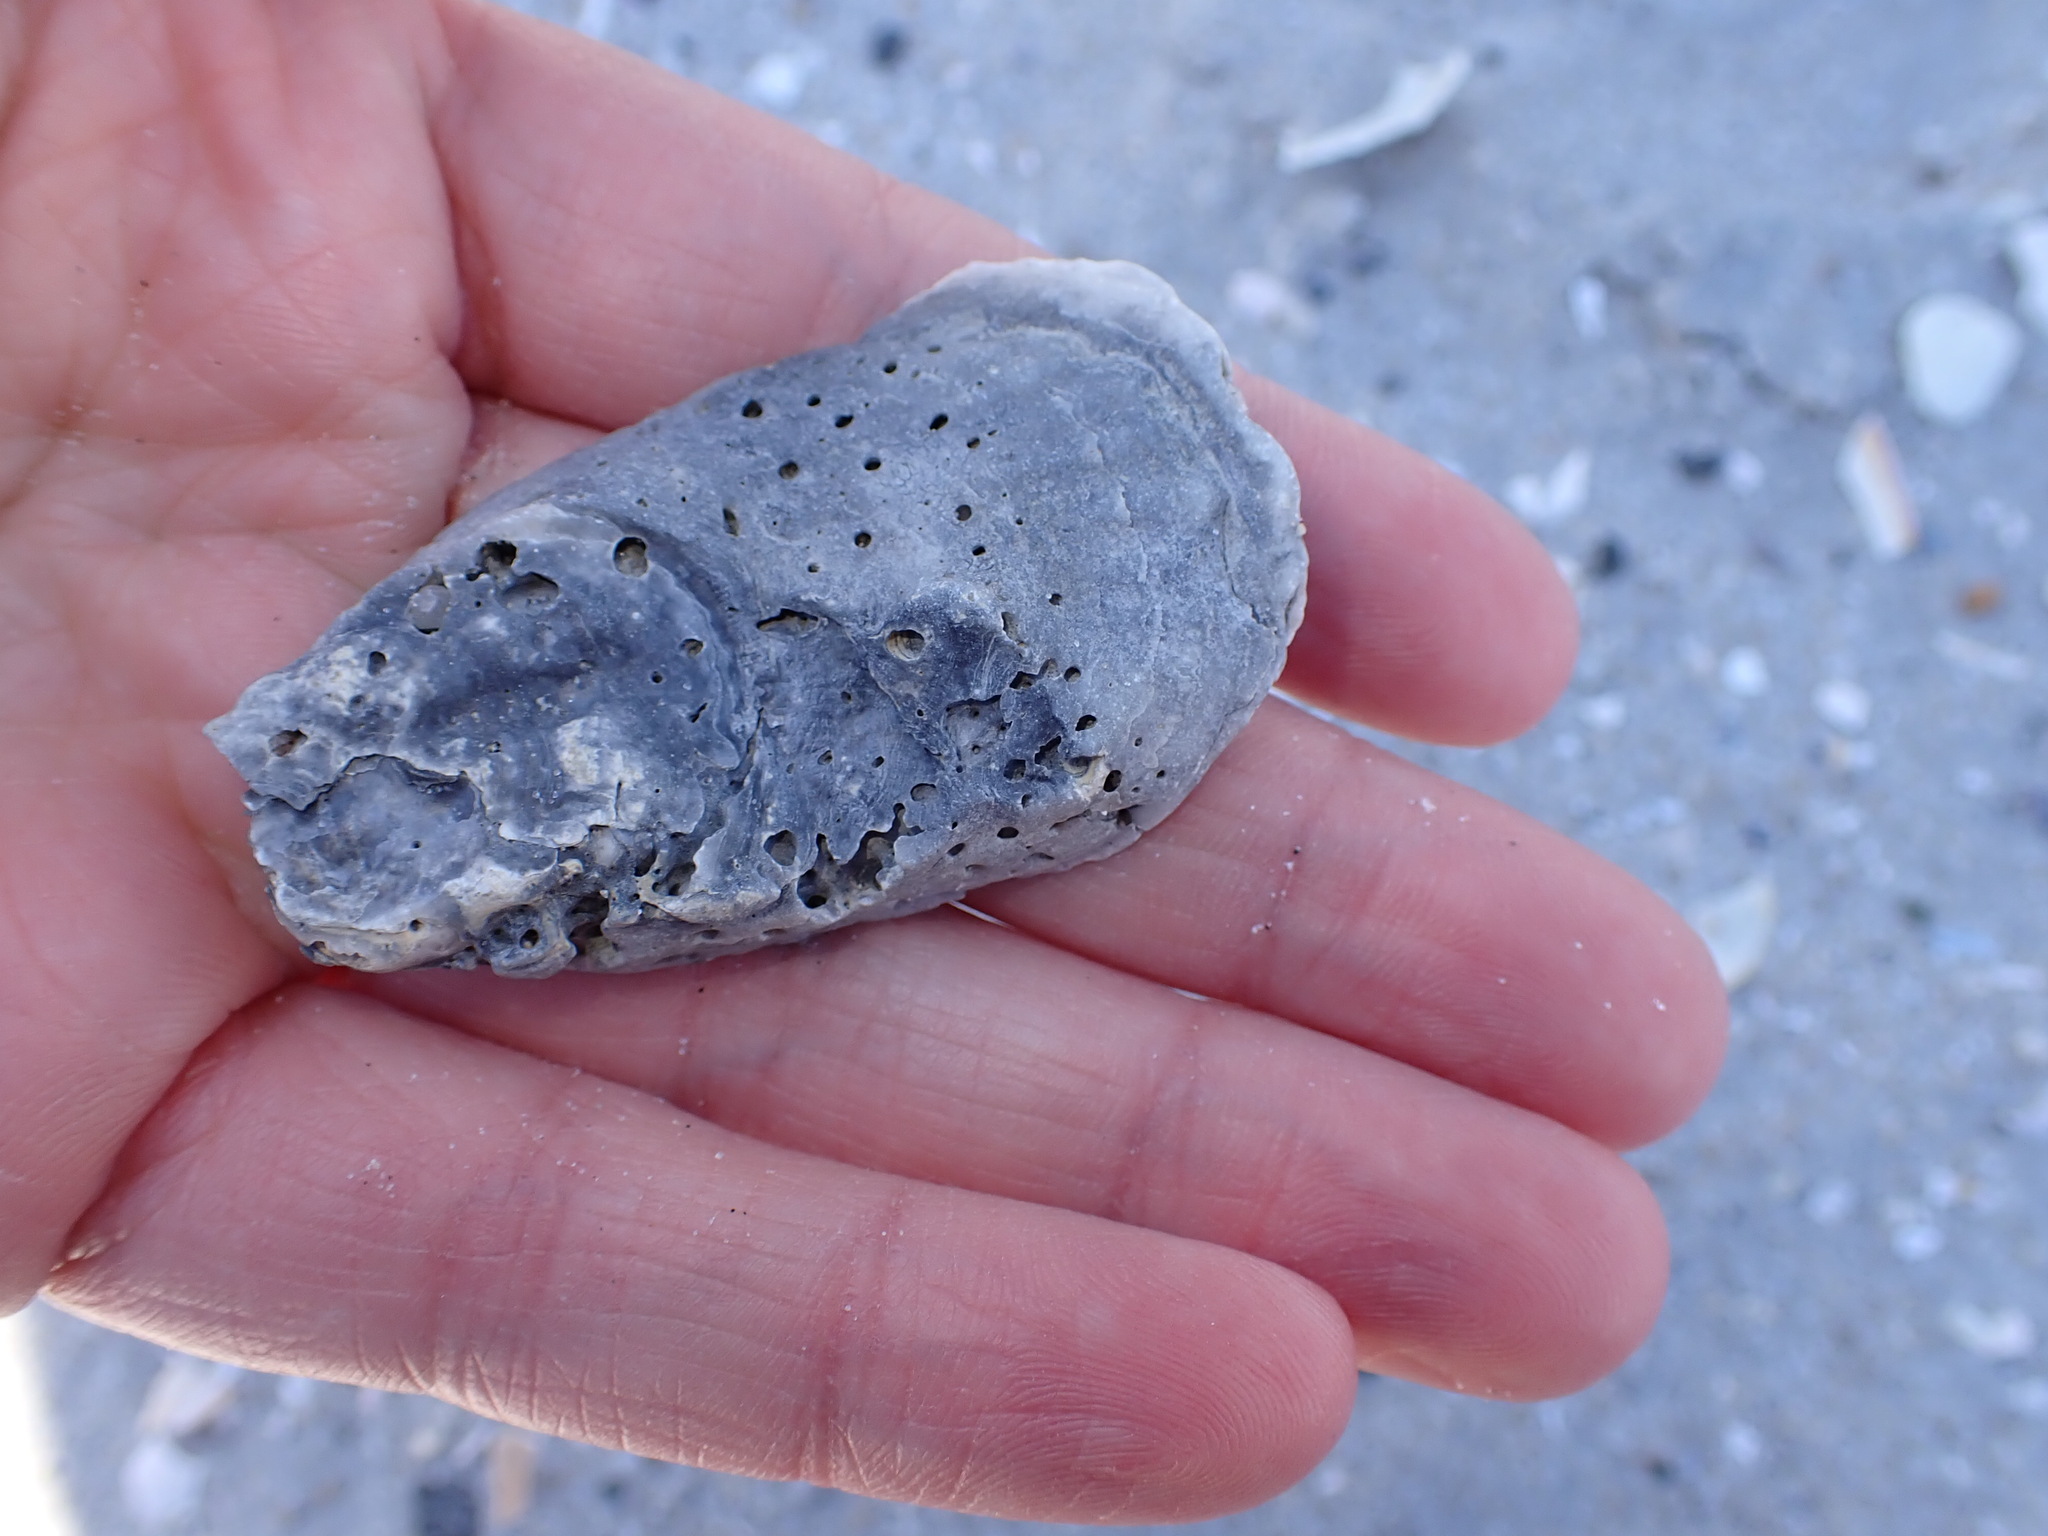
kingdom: Animalia
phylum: Mollusca
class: Bivalvia
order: Ostreida
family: Ostreidae
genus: Crassostrea
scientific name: Crassostrea virginica
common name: American oyster
